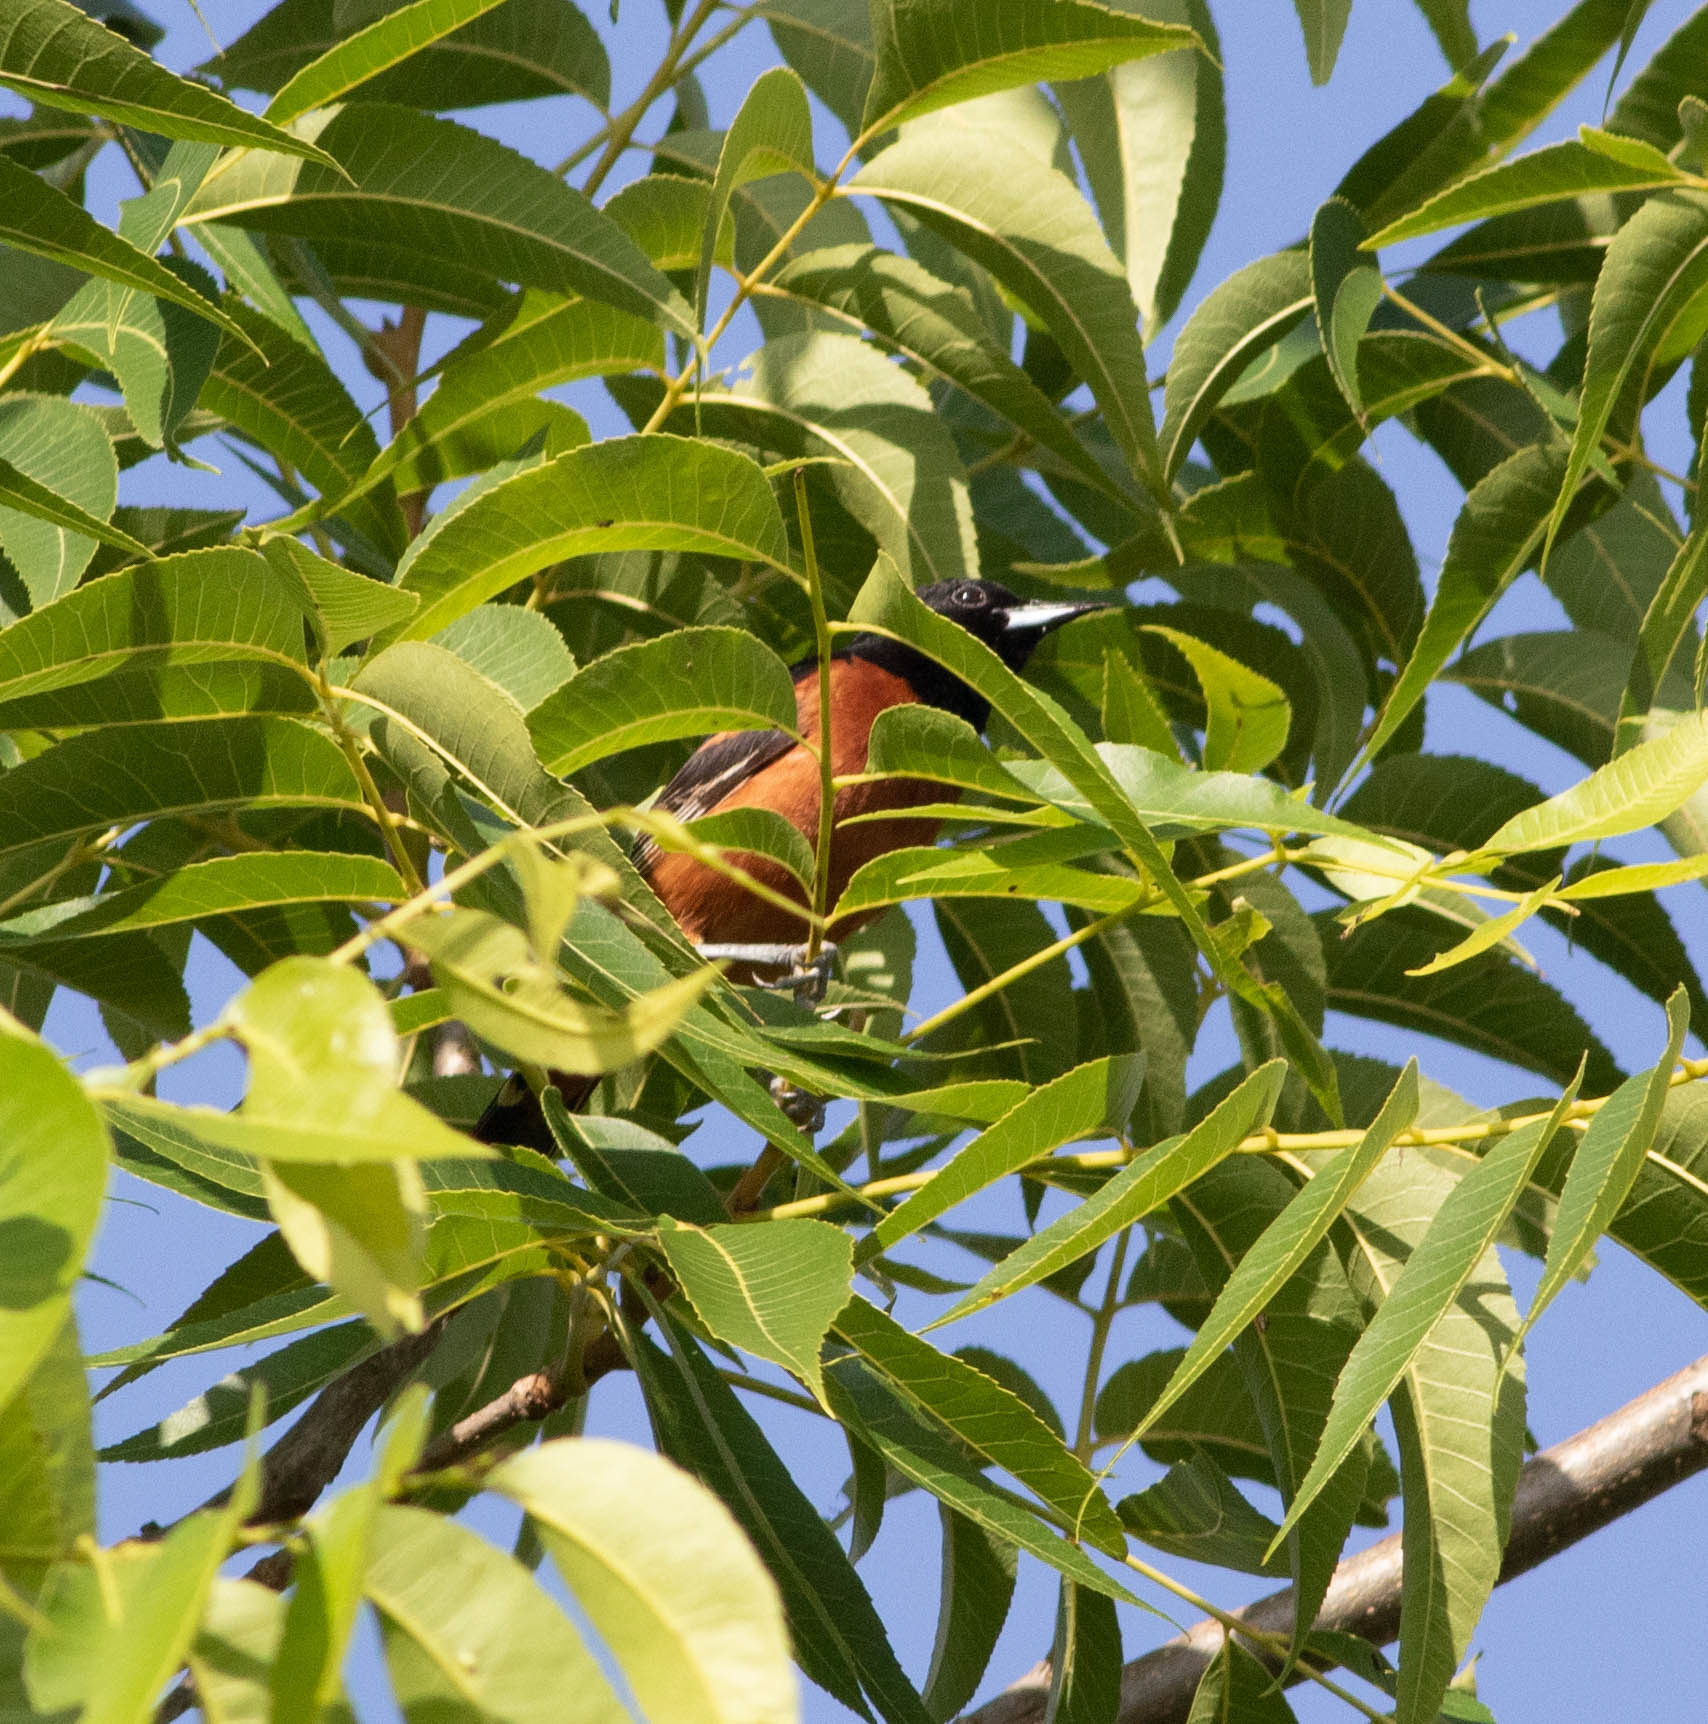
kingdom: Animalia
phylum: Chordata
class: Aves
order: Passeriformes
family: Icteridae
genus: Icterus
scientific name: Icterus spurius
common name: Orchard oriole
